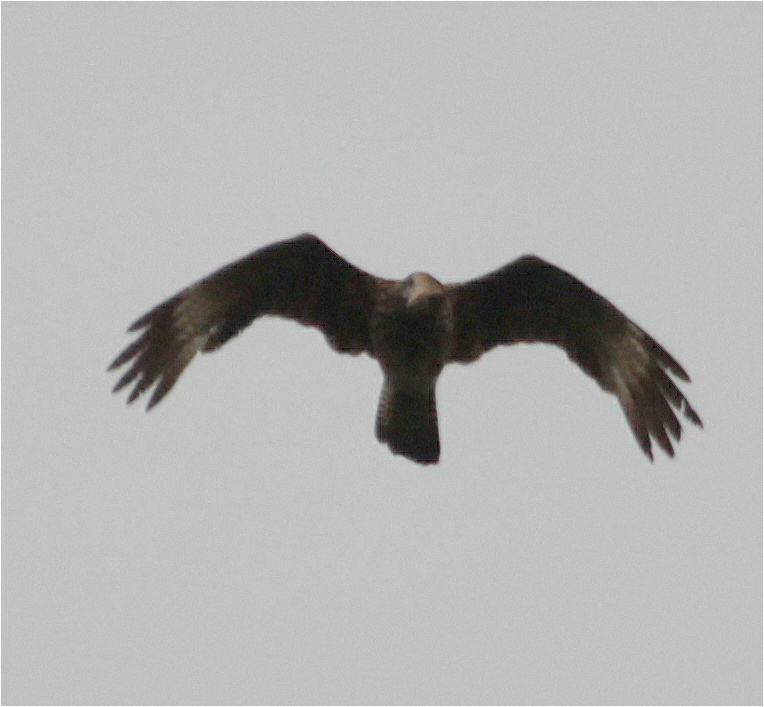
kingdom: Animalia
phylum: Chordata
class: Aves
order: Falconiformes
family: Falconidae
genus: Daptrius
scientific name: Daptrius
